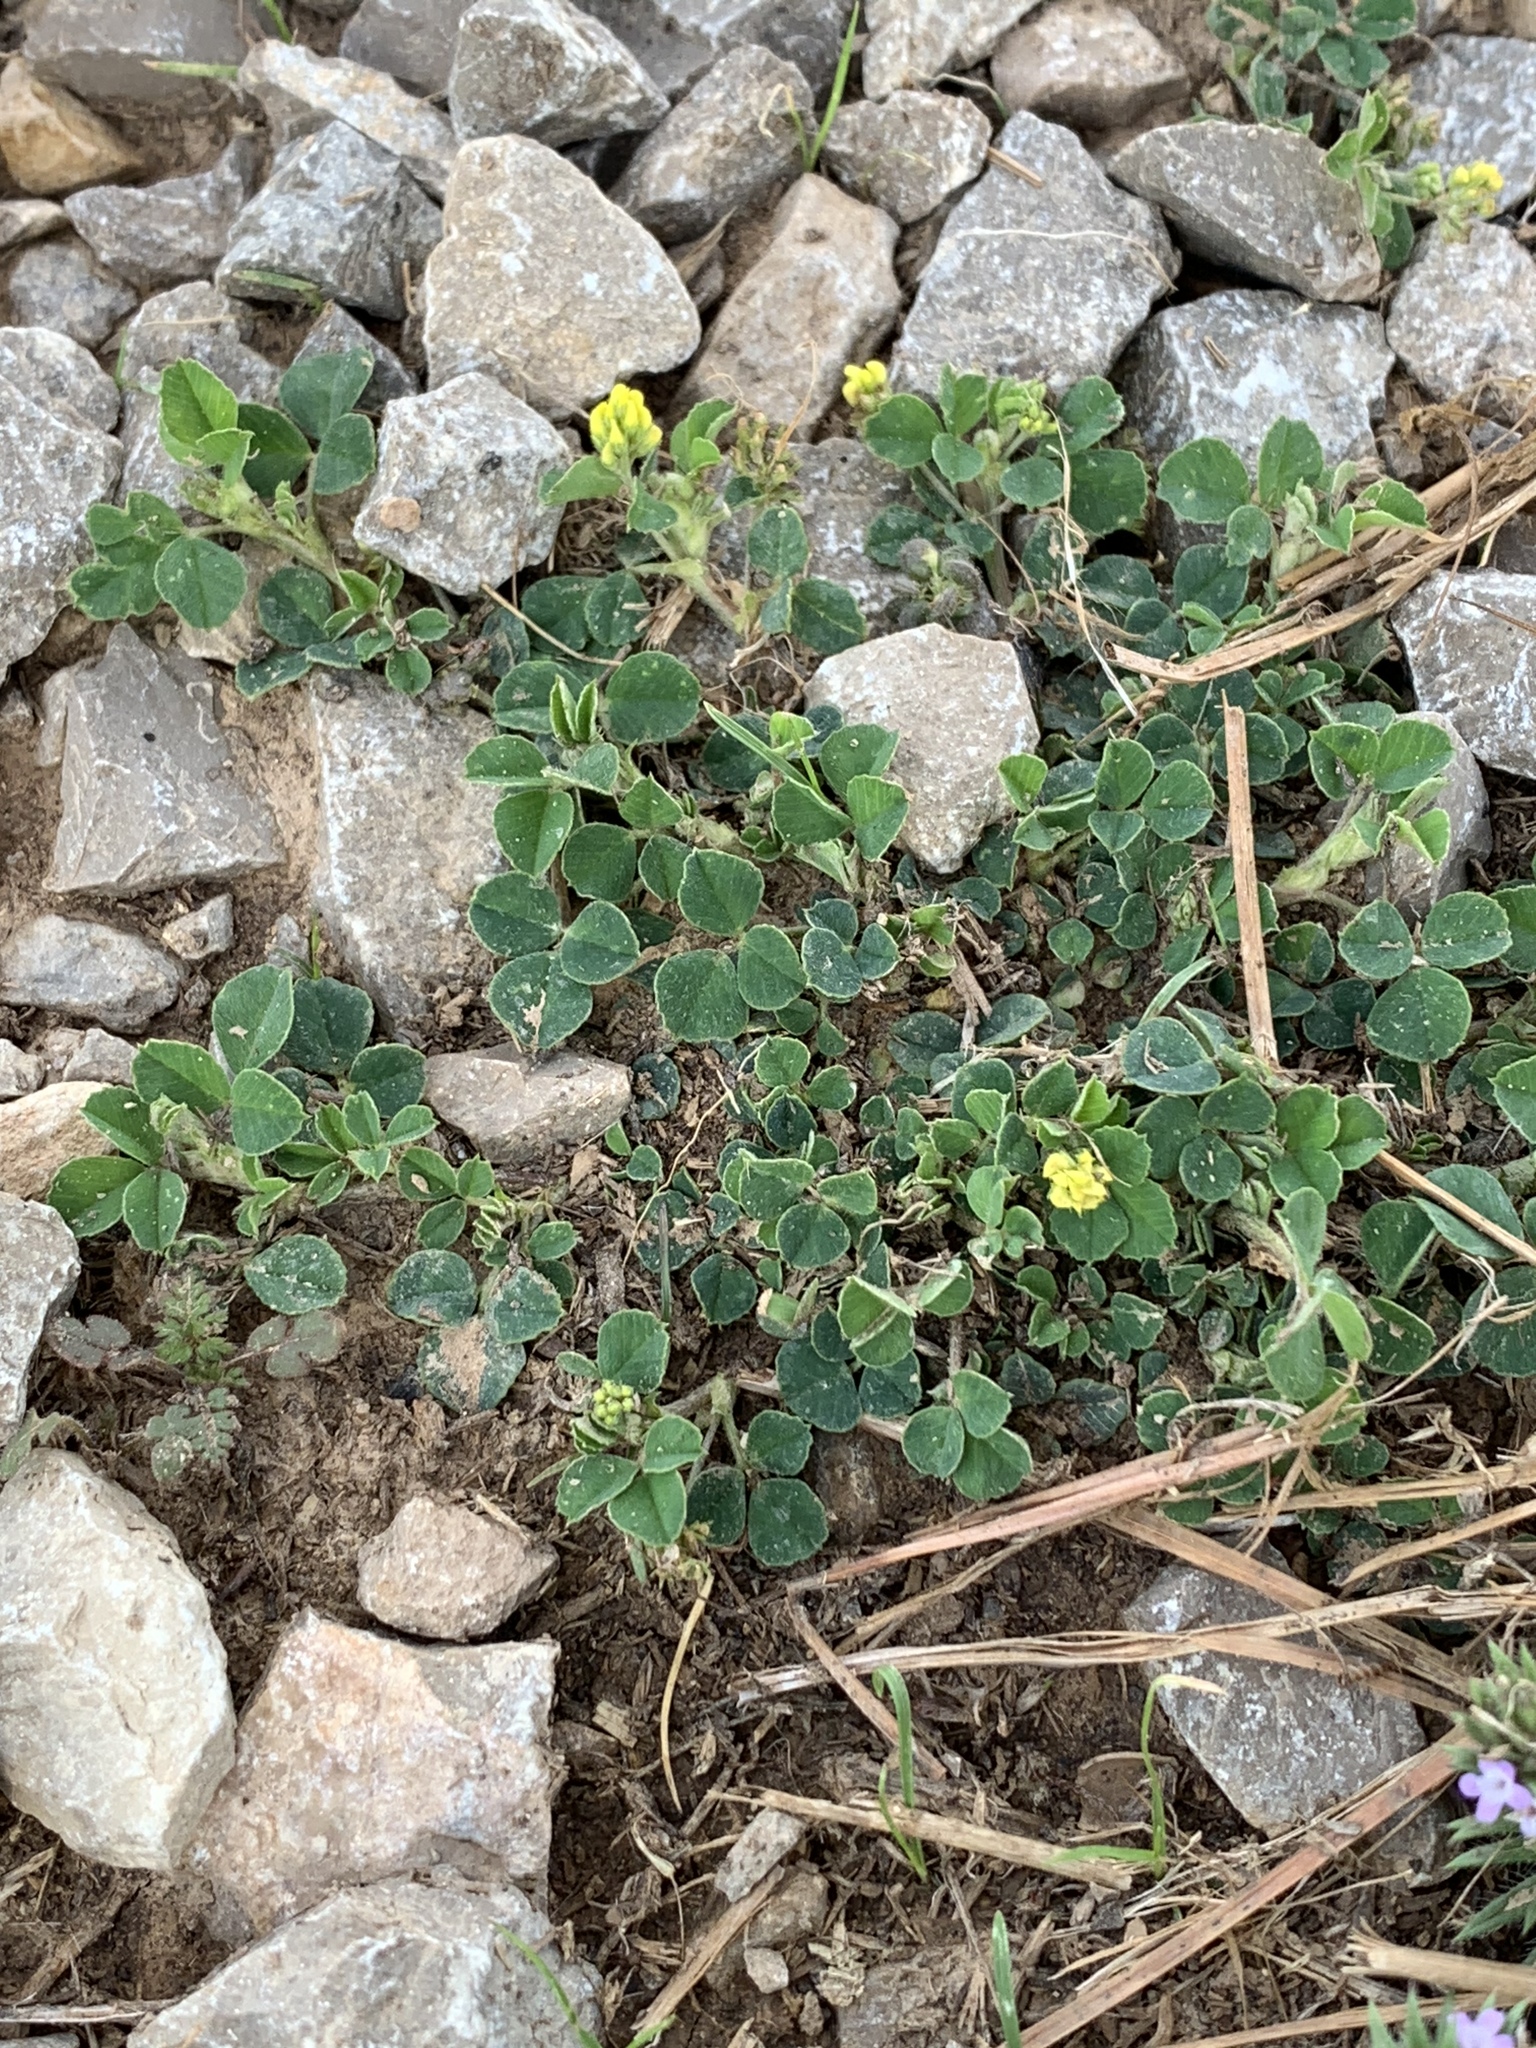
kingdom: Plantae
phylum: Tracheophyta
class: Magnoliopsida
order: Fabales
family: Fabaceae
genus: Medicago
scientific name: Medicago lupulina
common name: Black medick
